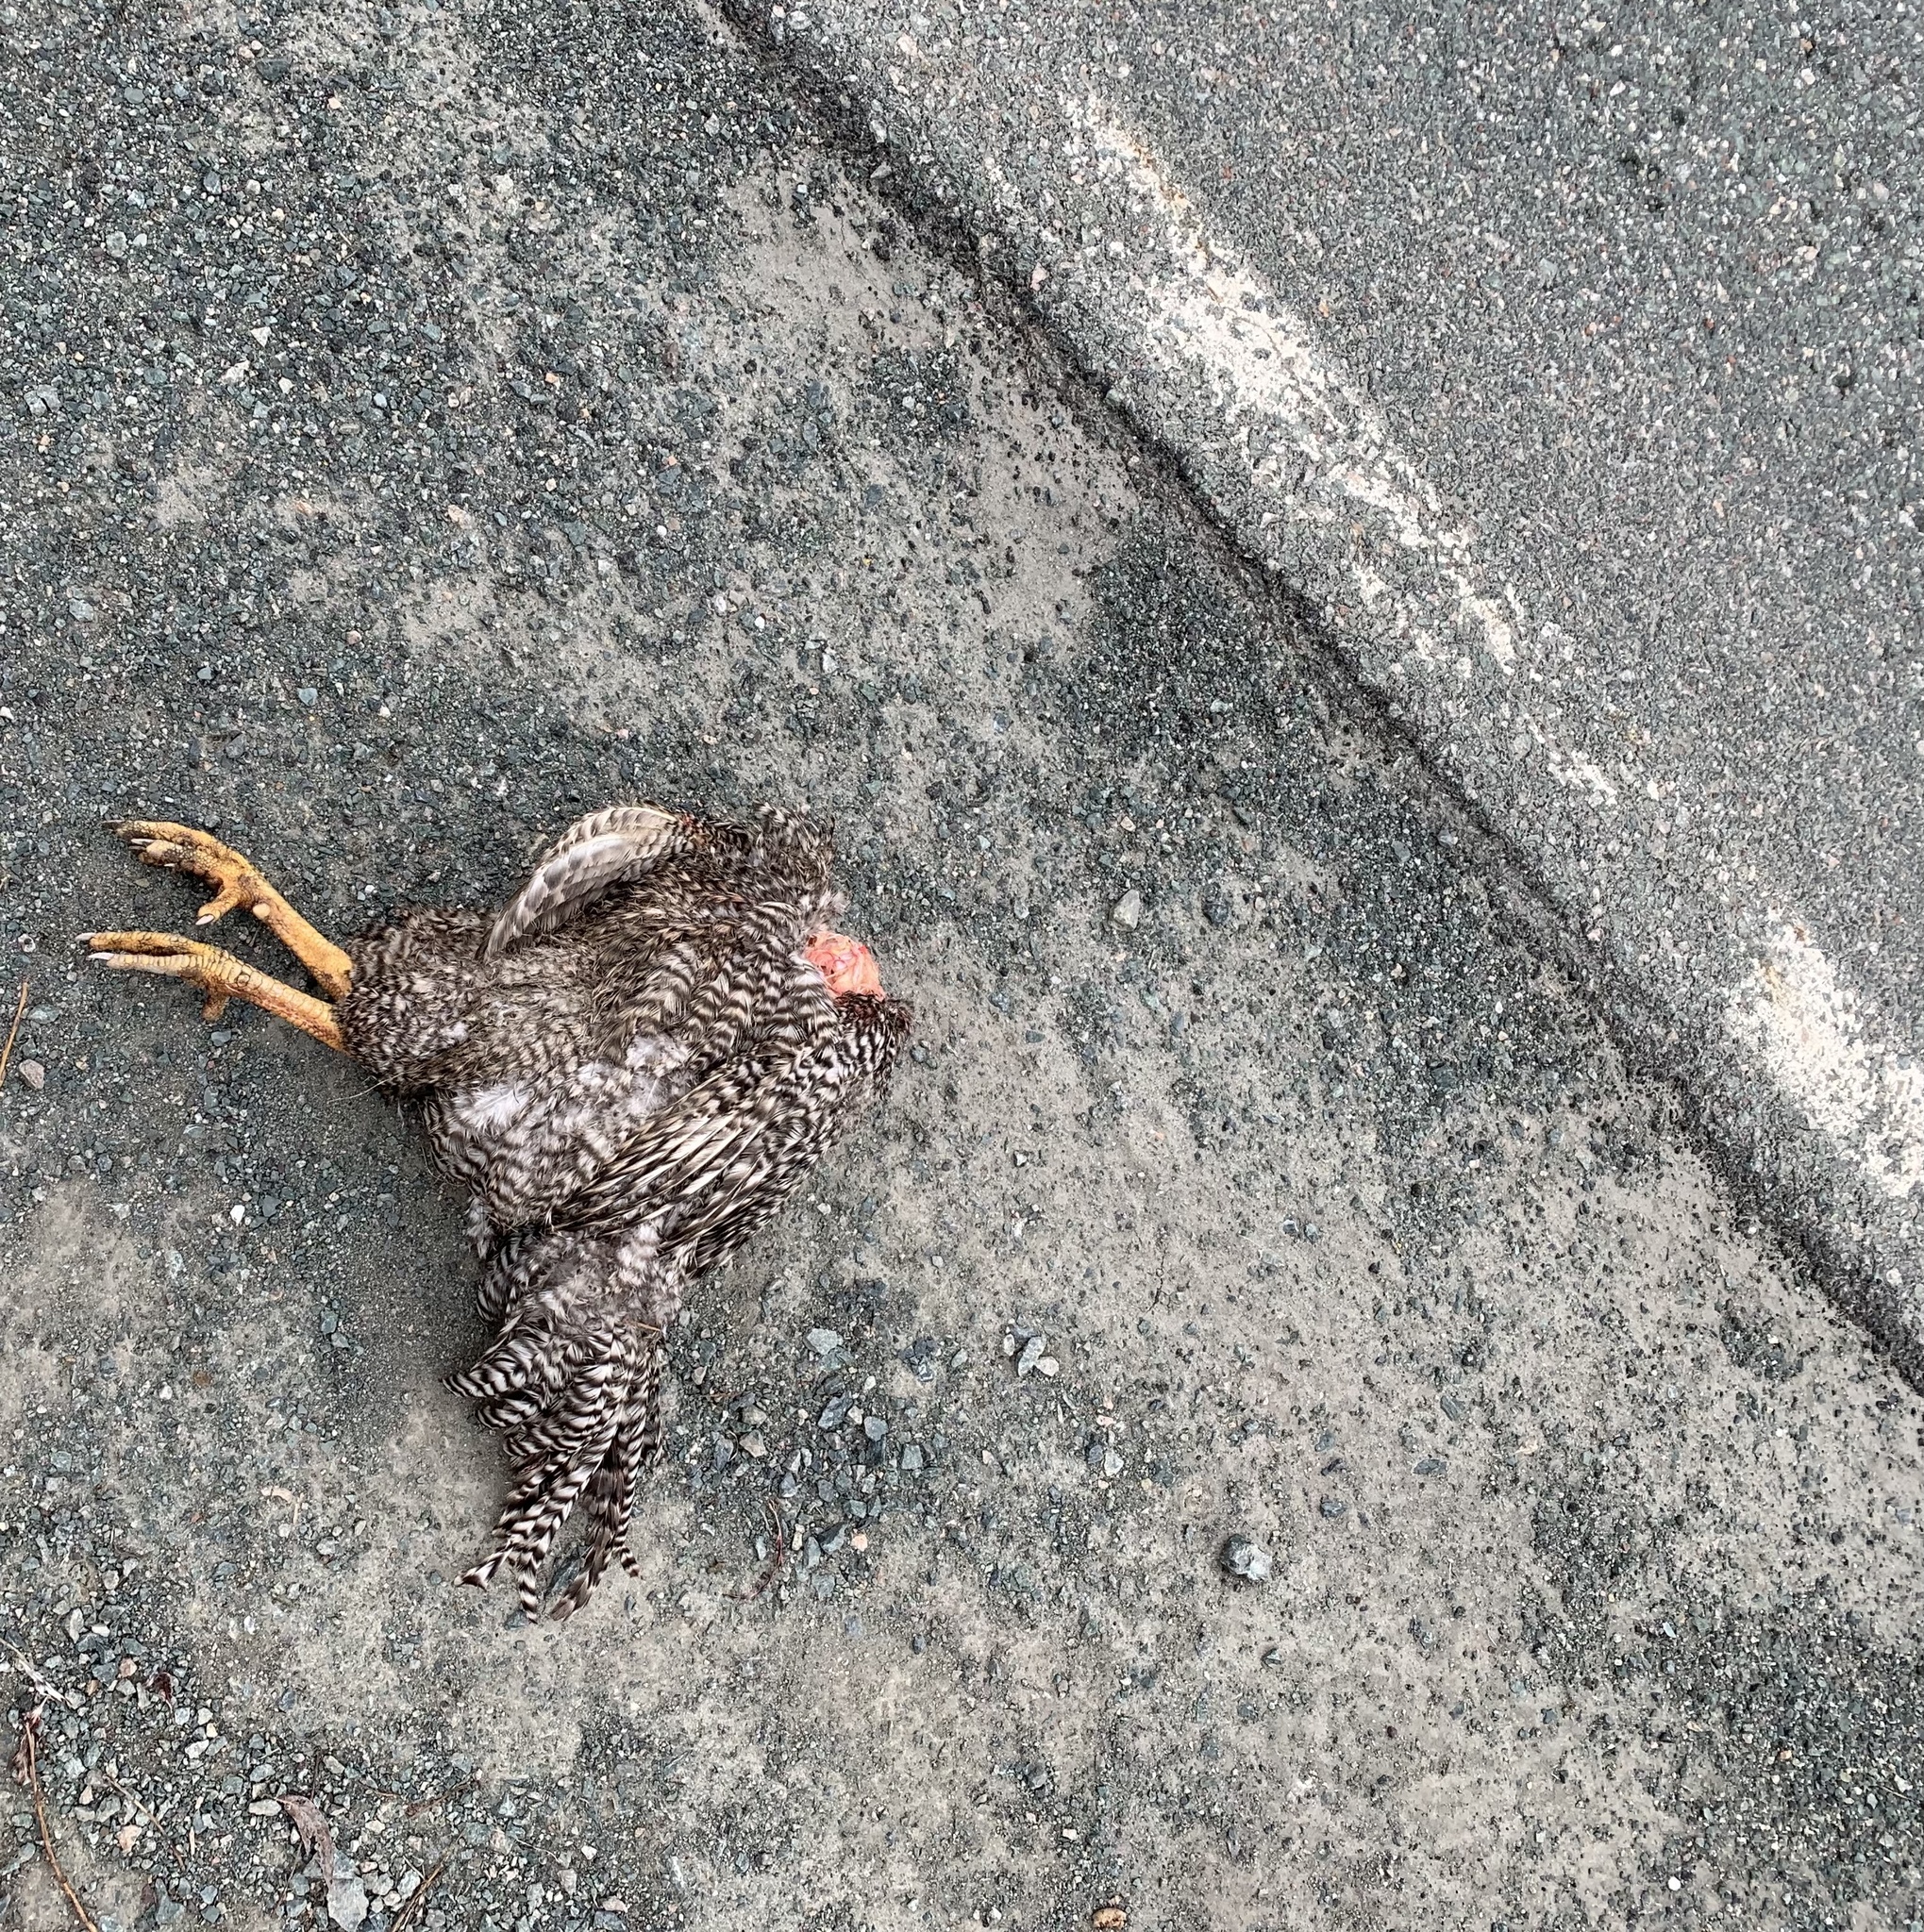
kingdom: Animalia
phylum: Chordata
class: Aves
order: Galliformes
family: Phasianidae
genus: Gallus
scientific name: Gallus gallus
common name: Red junglefowl
